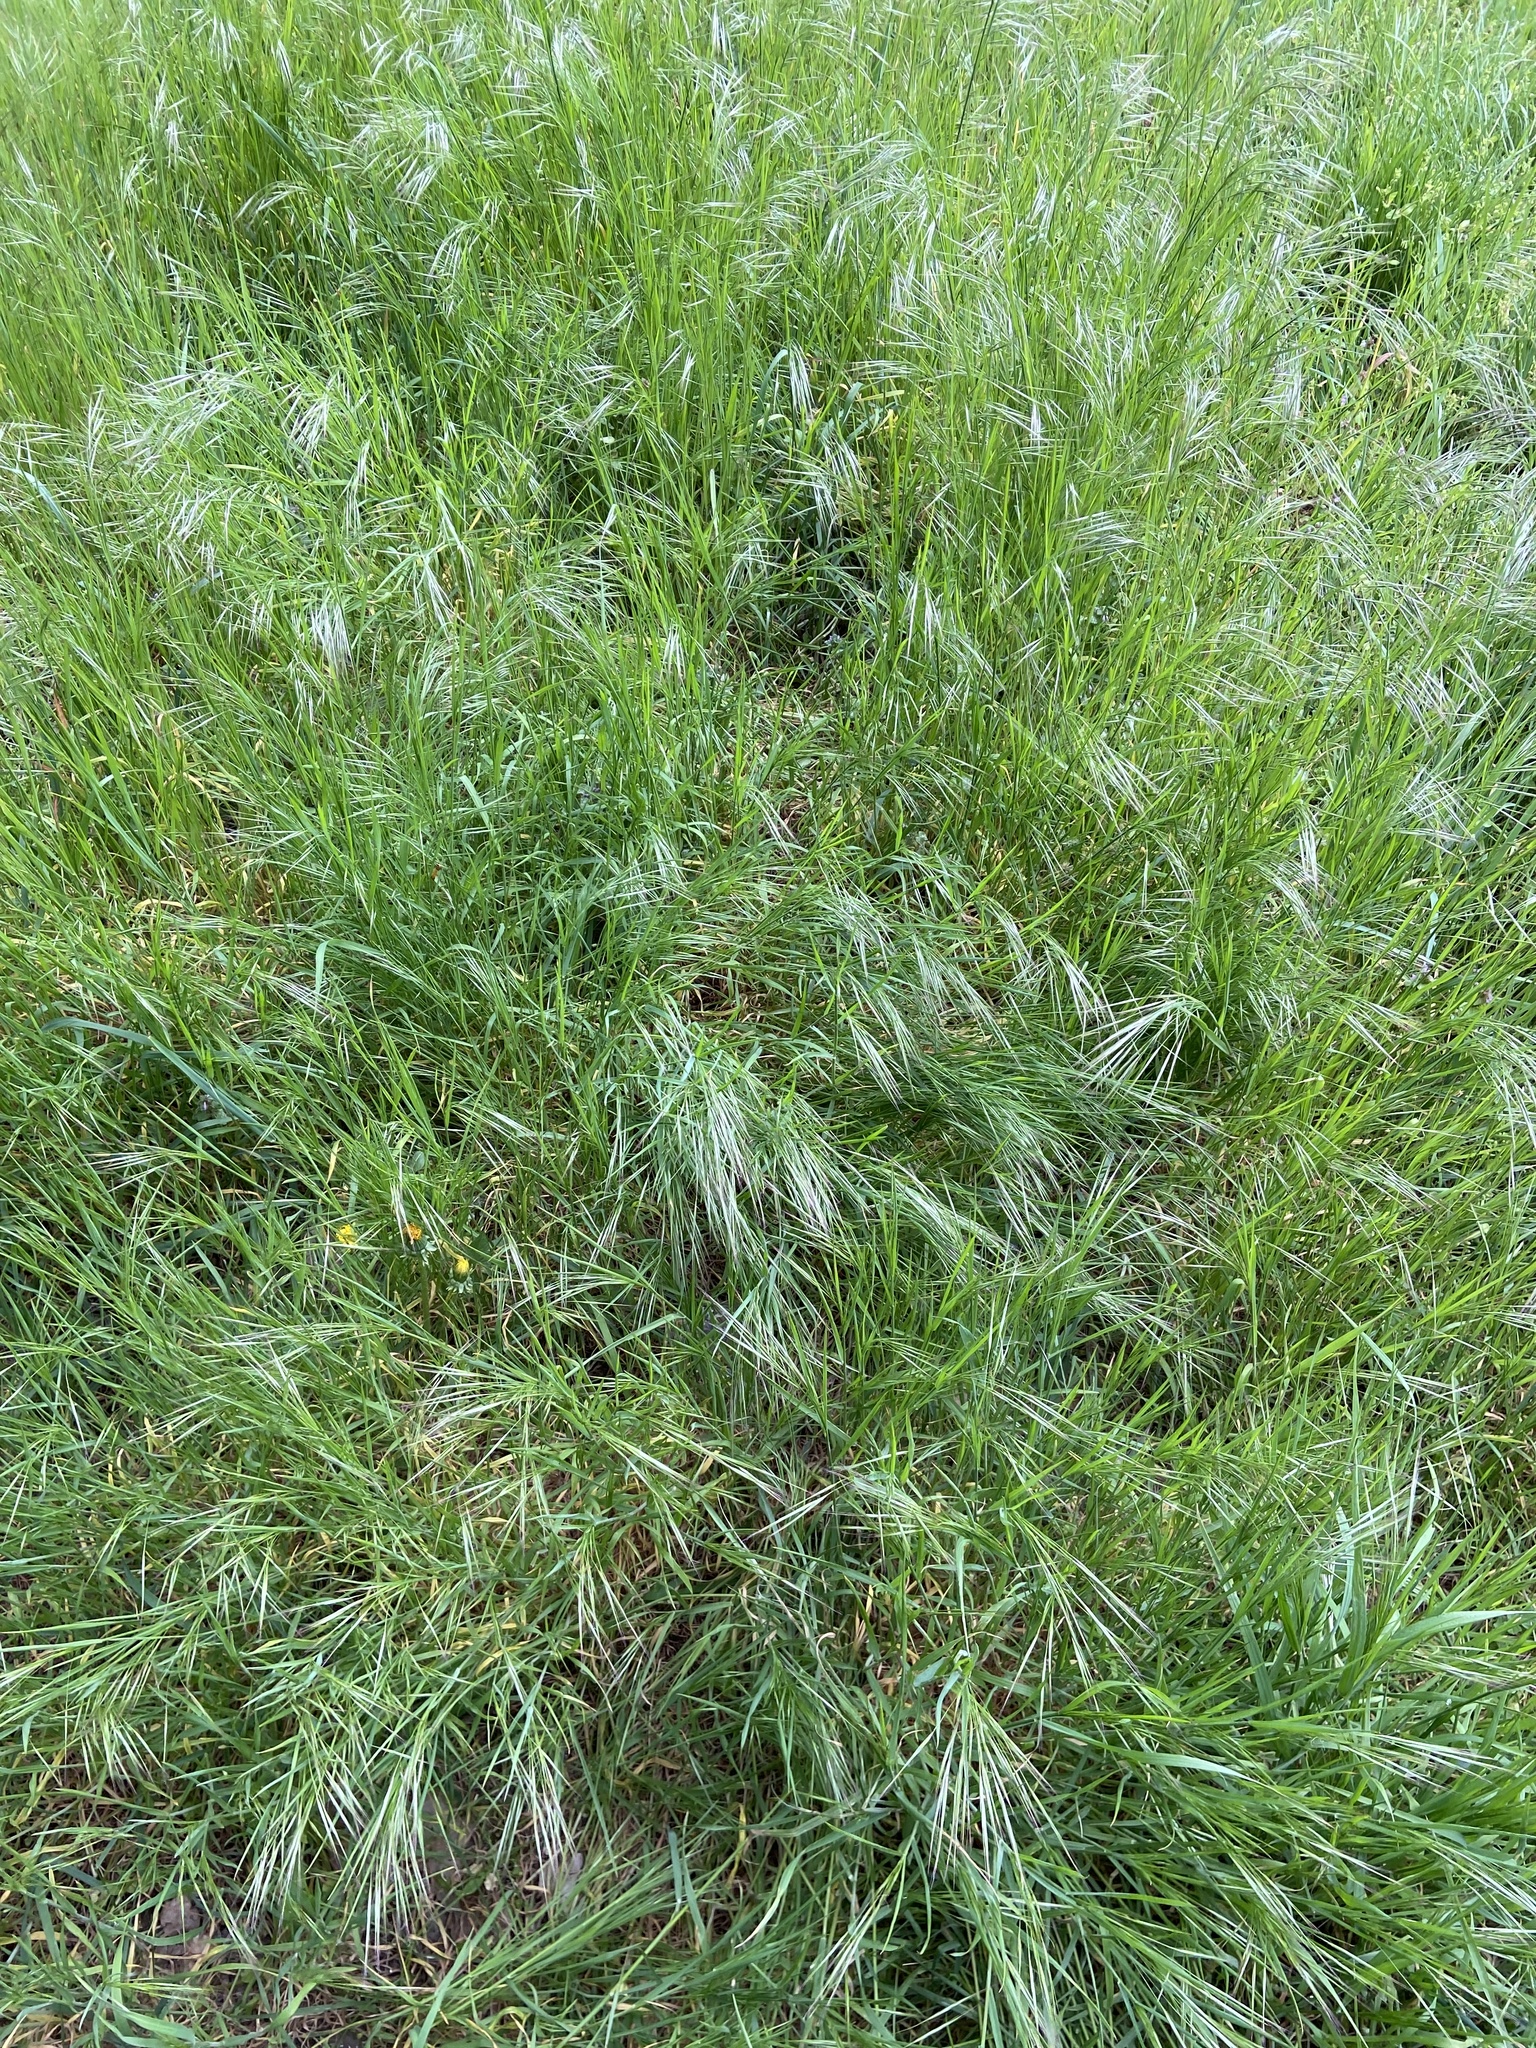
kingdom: Plantae
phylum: Tracheophyta
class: Liliopsida
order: Poales
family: Poaceae
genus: Bromus
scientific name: Bromus sterilis
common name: Poverty brome
